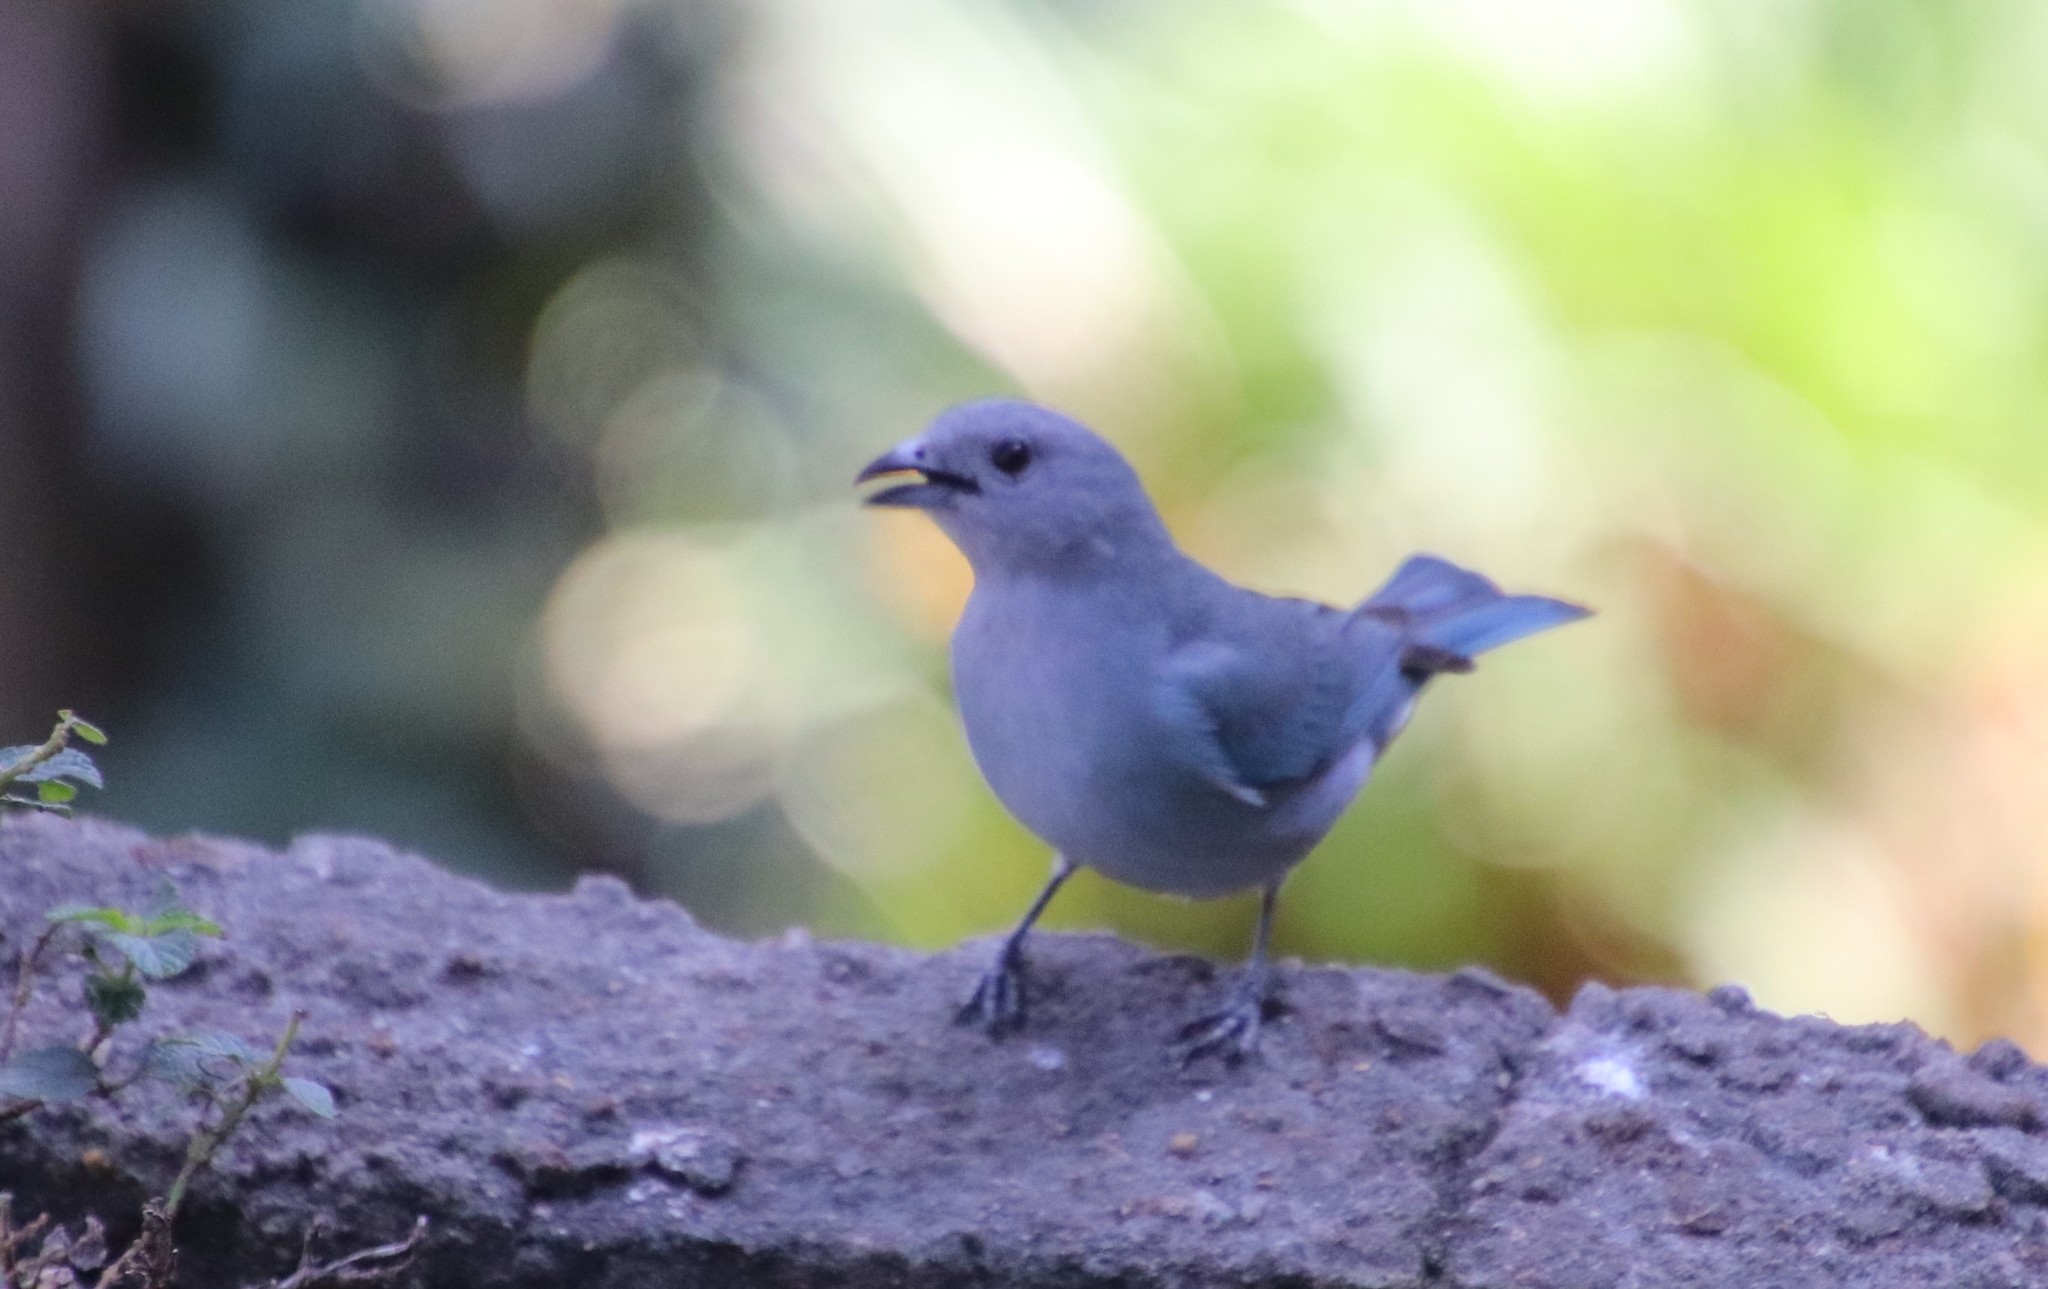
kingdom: Animalia
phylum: Chordata
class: Aves
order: Passeriformes
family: Thraupidae
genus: Thraupis
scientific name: Thraupis sayaca
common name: Sayaca tanager
